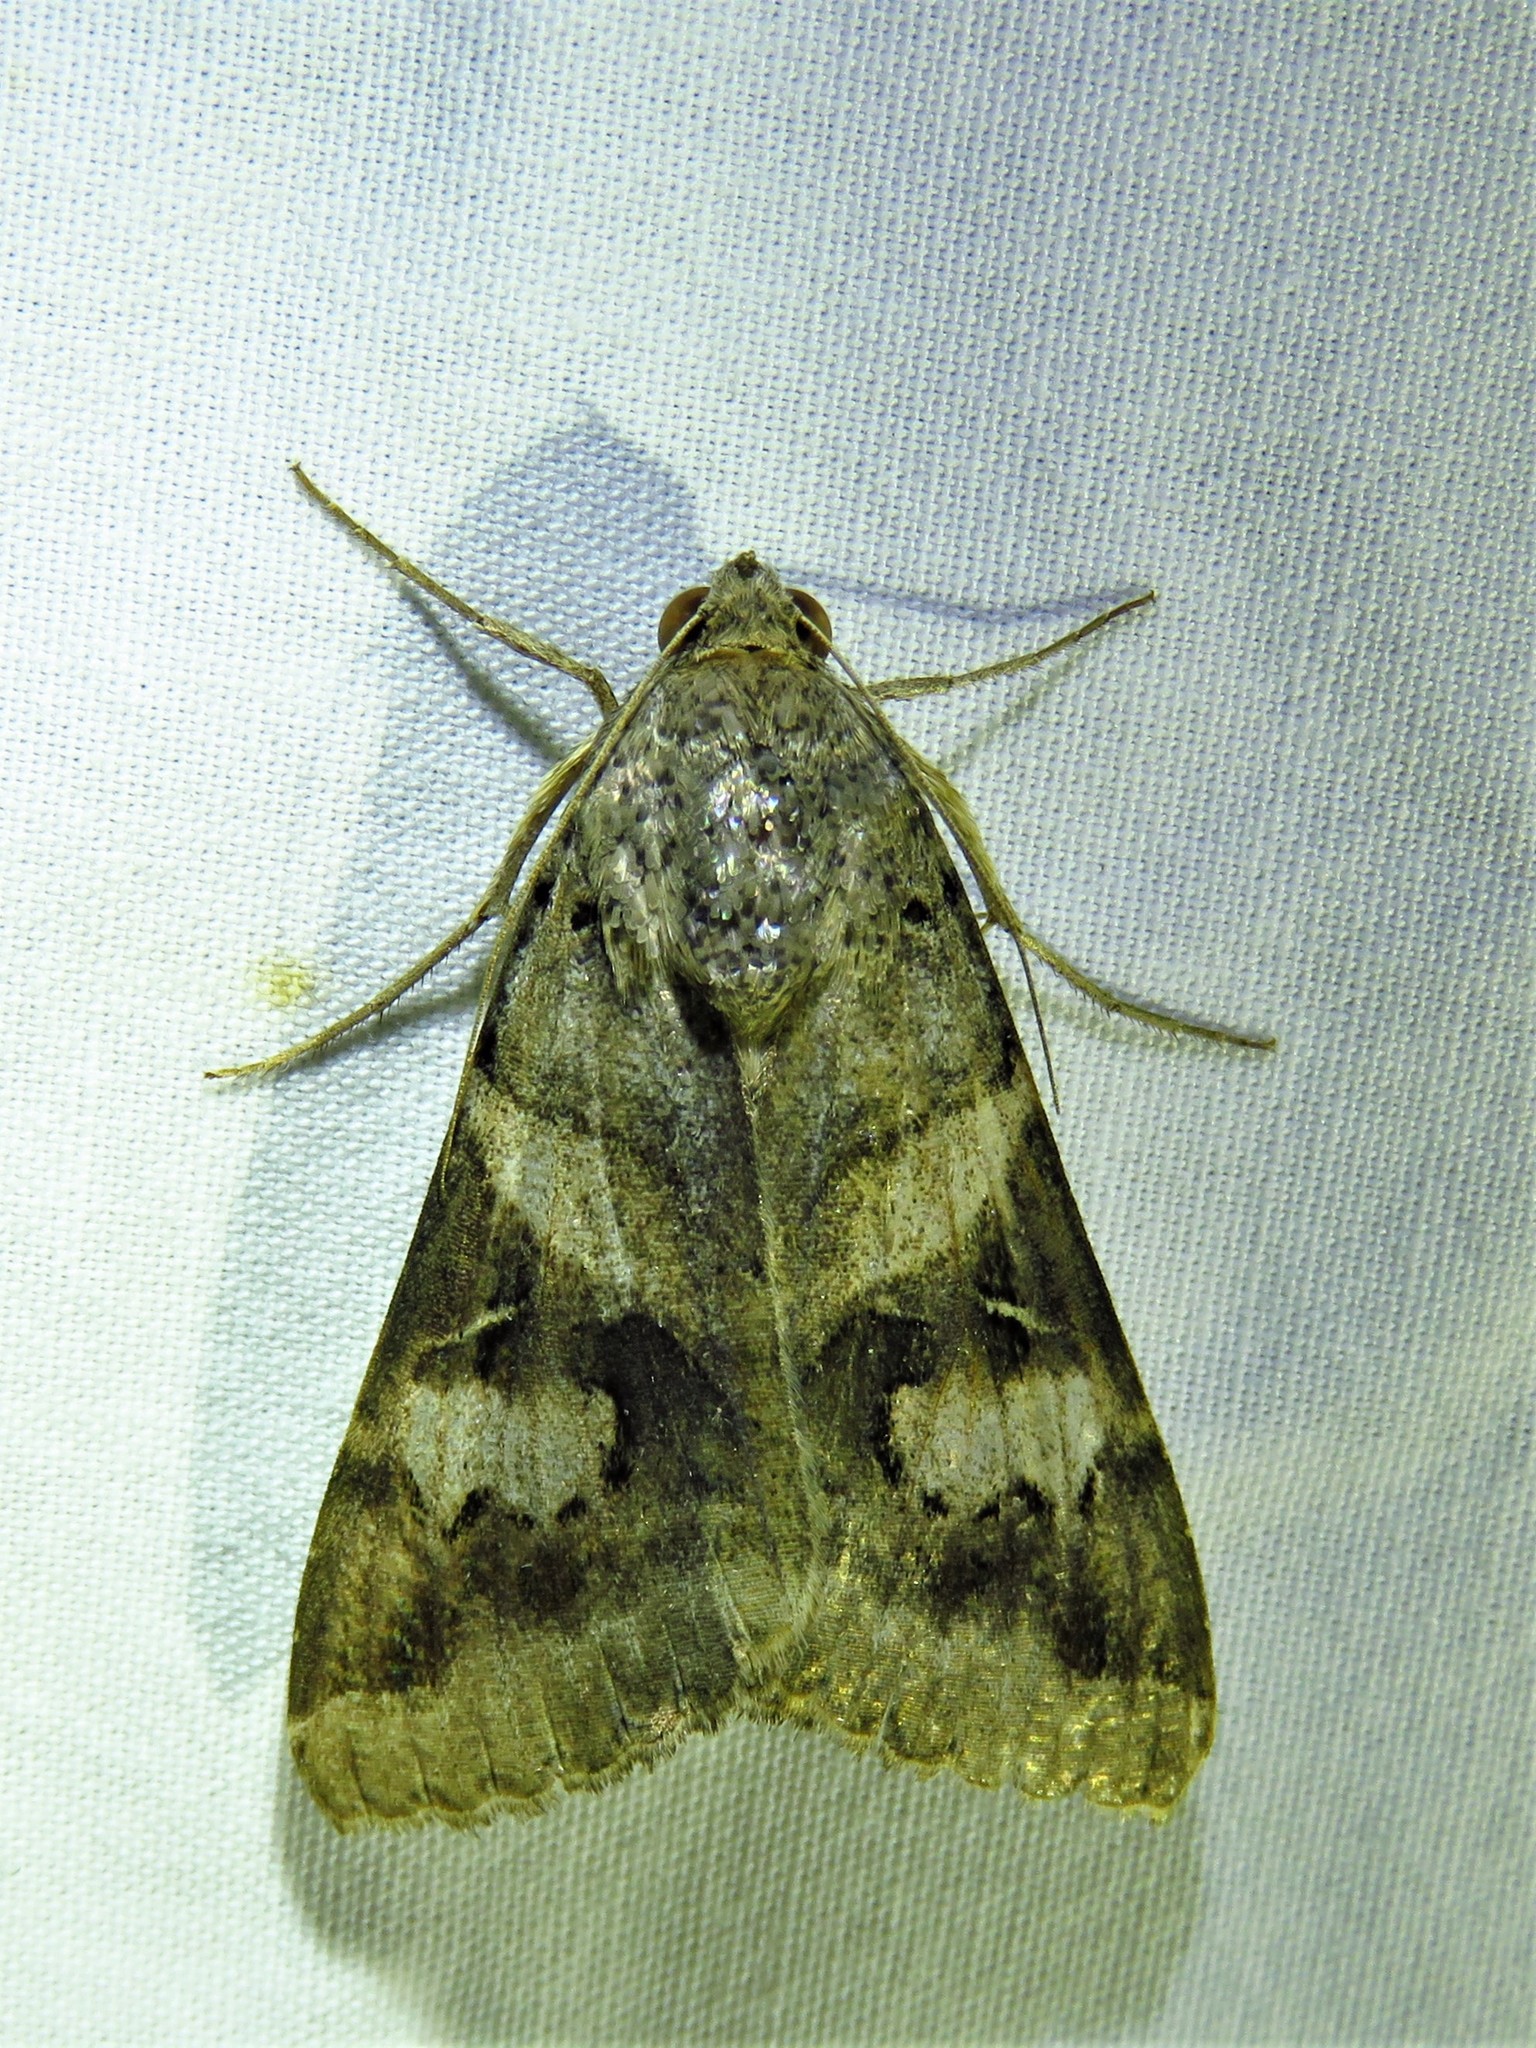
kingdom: Animalia
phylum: Arthropoda
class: Insecta
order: Lepidoptera
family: Erebidae
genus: Melipotis
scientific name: Melipotis indomita
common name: Moth
